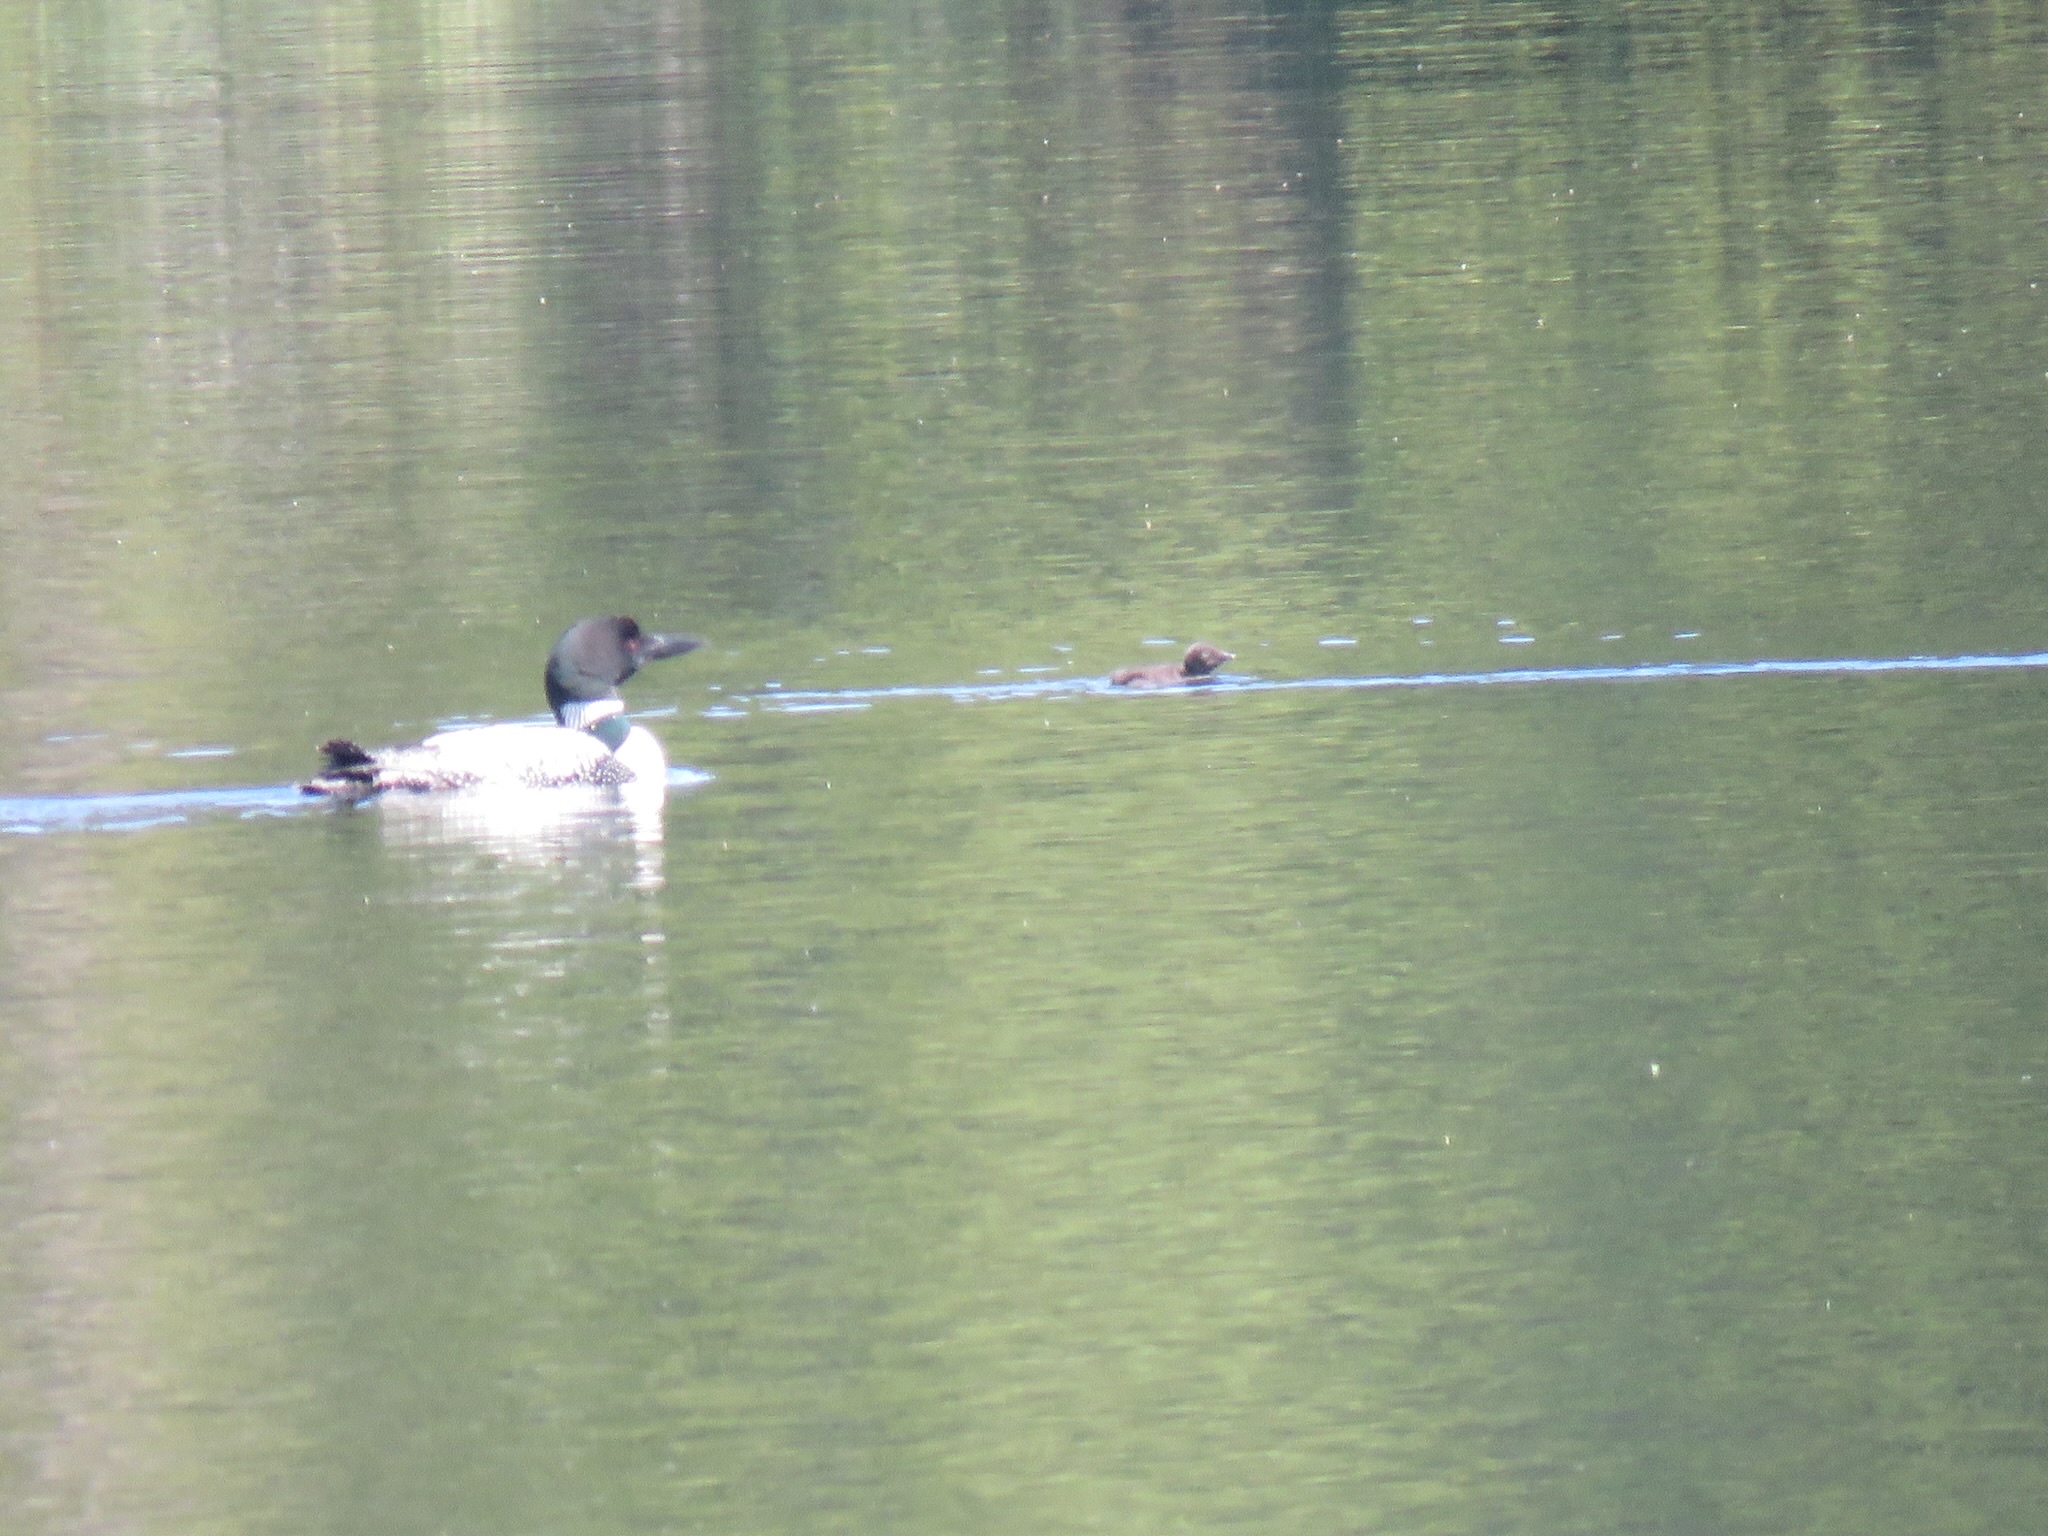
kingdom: Animalia
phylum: Chordata
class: Aves
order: Gaviiformes
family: Gaviidae
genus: Gavia
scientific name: Gavia immer
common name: Common loon
